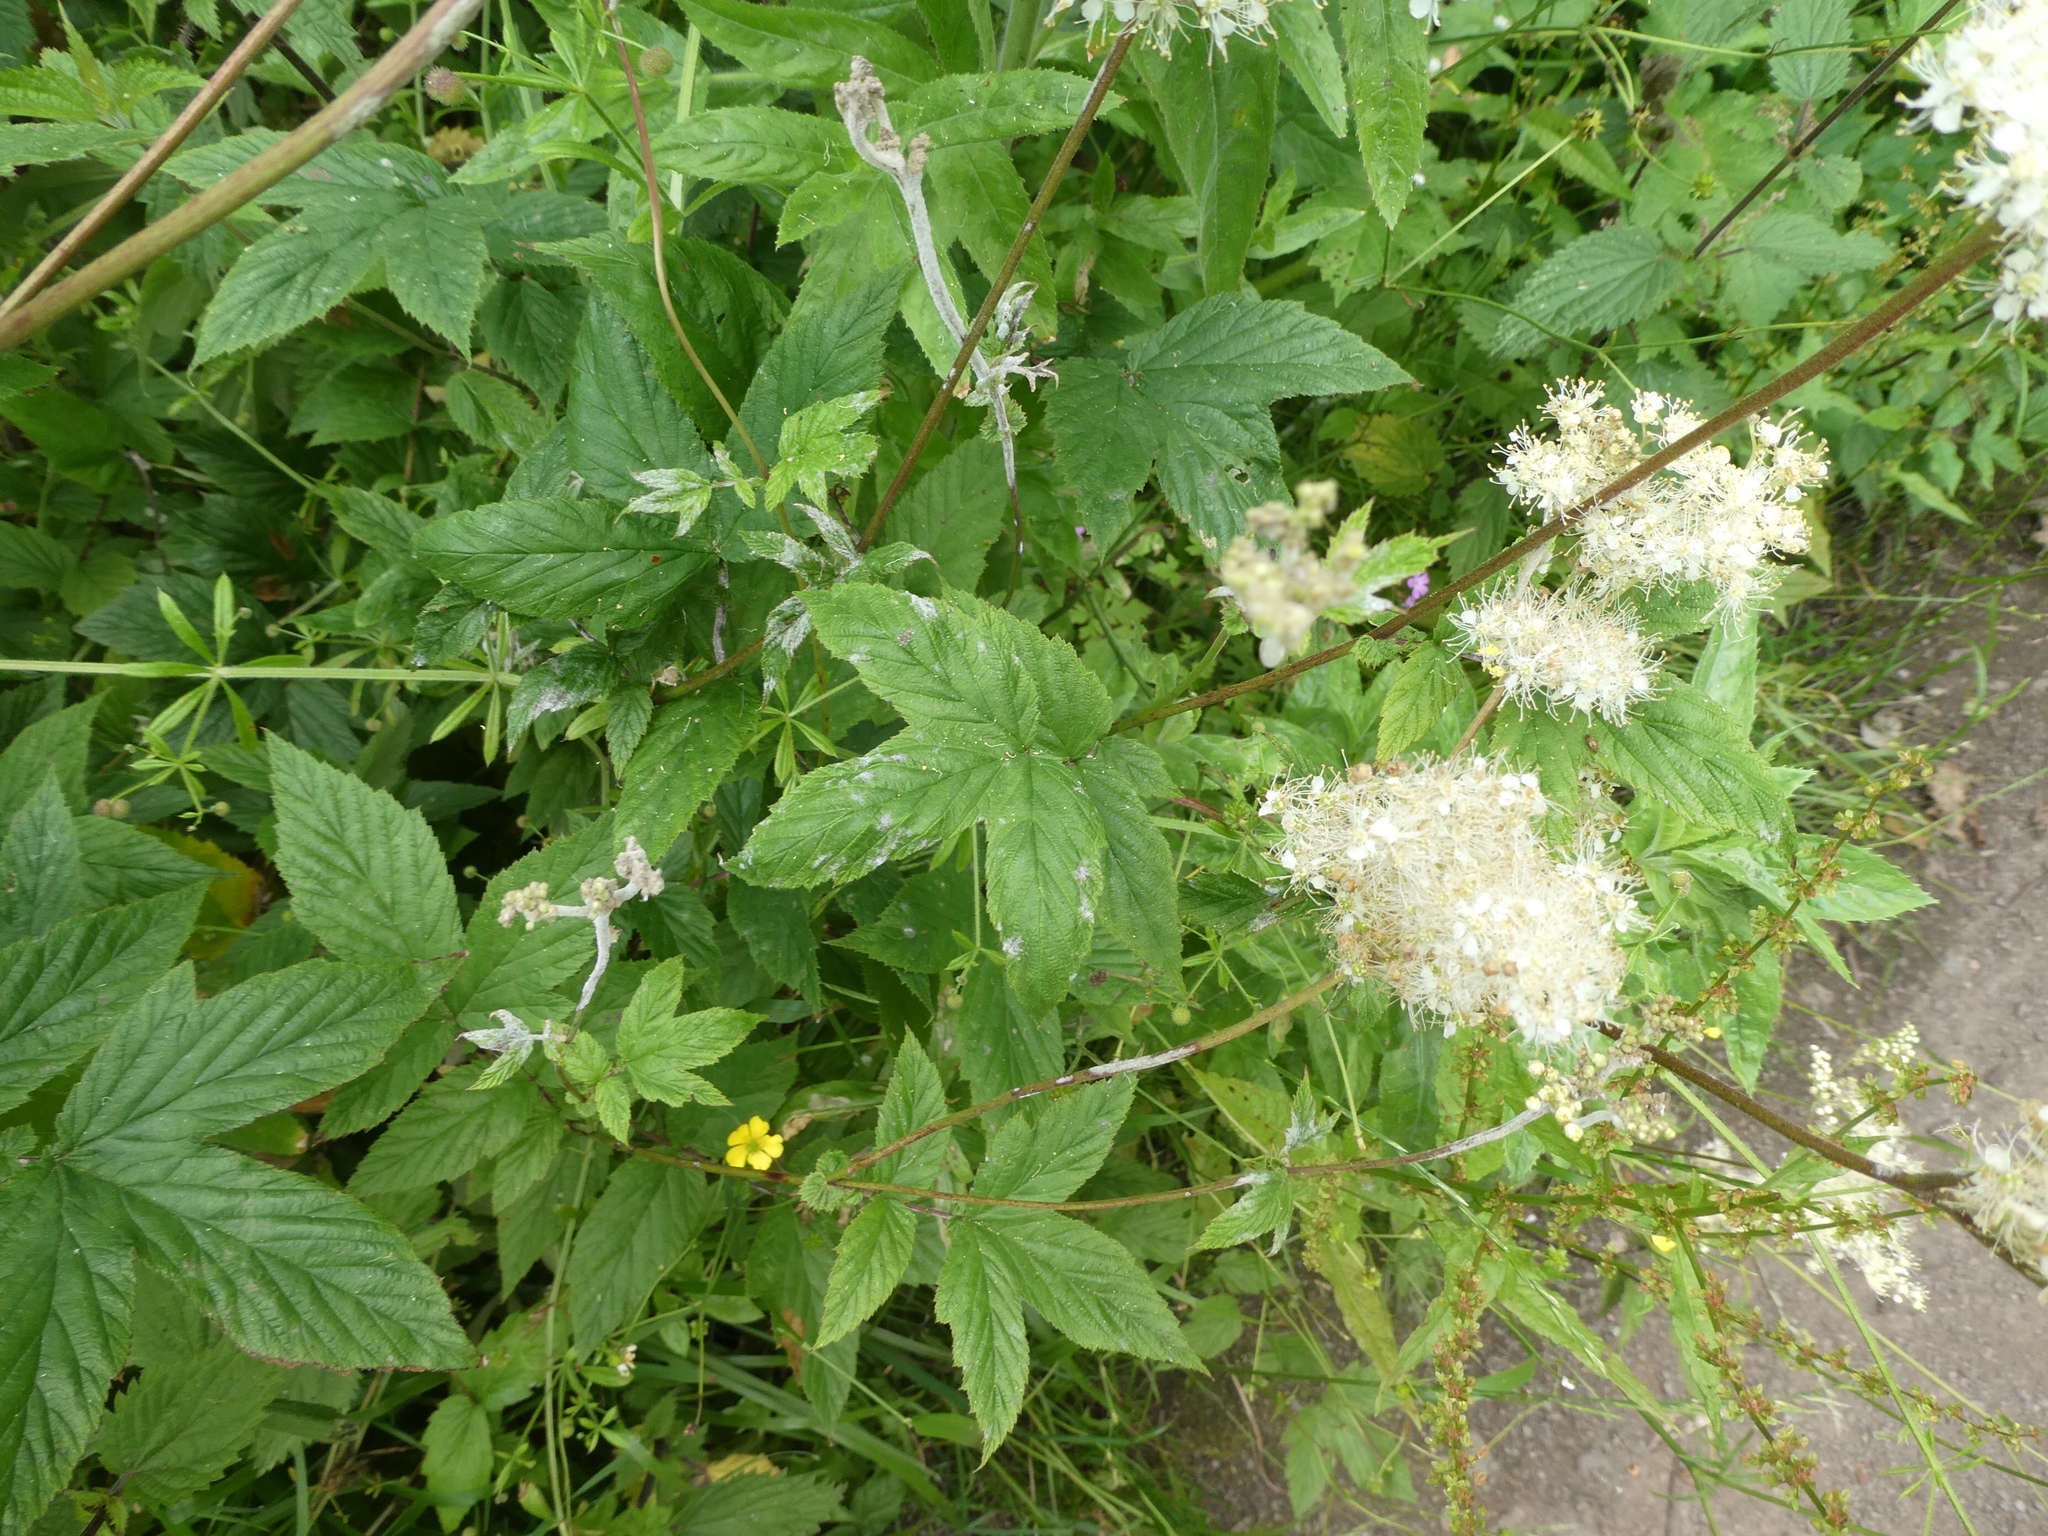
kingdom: Plantae
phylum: Tracheophyta
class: Magnoliopsida
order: Rosales
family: Rosaceae
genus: Filipendula
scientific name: Filipendula ulmaria
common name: Meadowsweet
